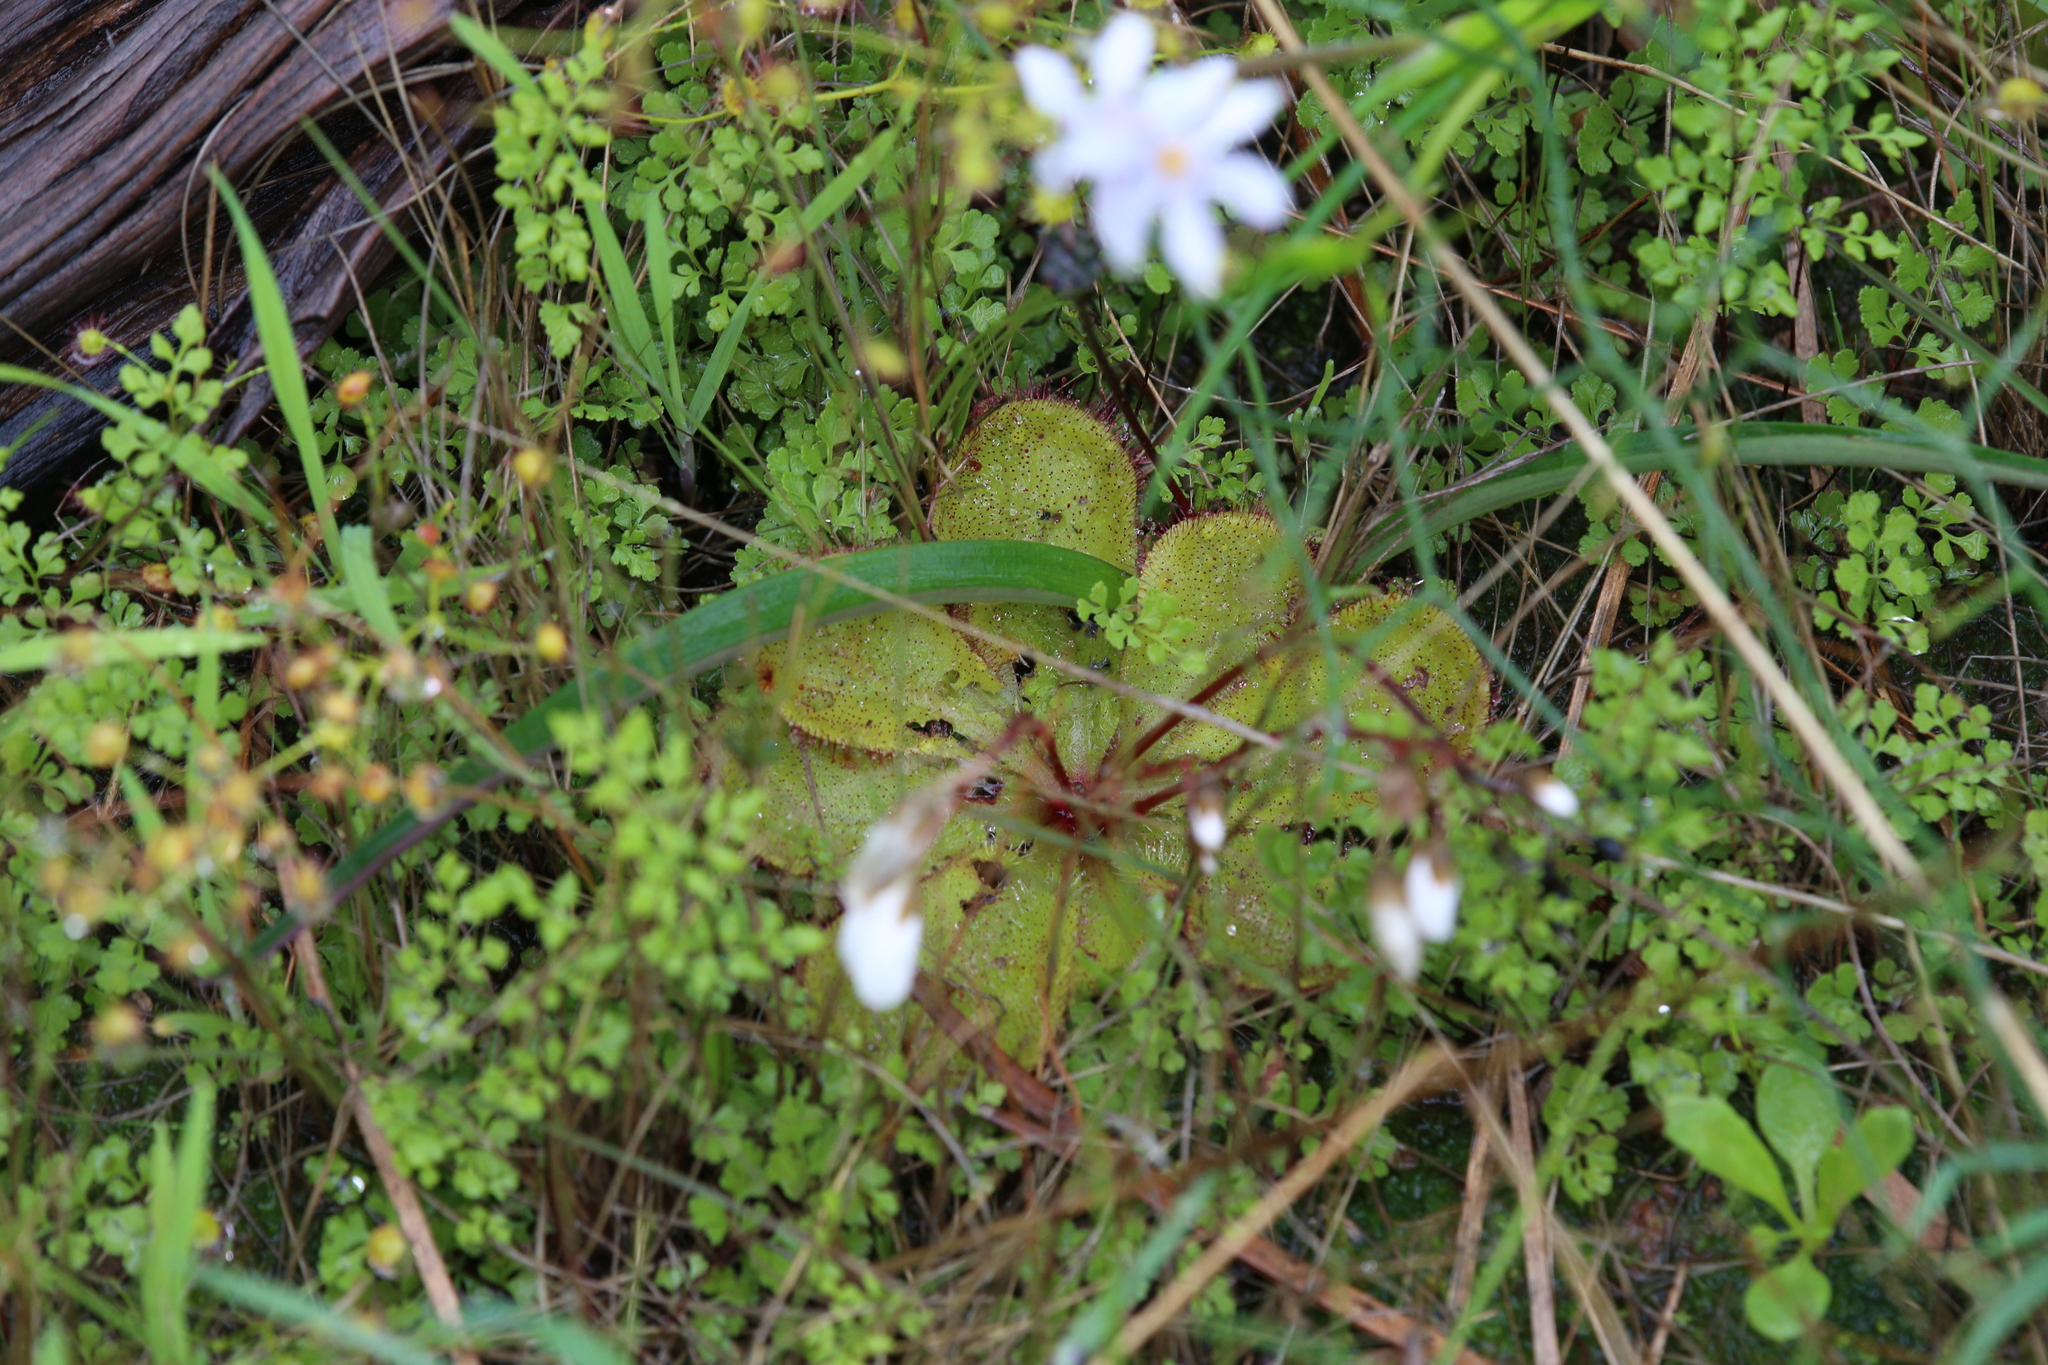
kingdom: Plantae
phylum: Tracheophyta
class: Magnoliopsida
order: Caryophyllales
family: Droseraceae
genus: Drosera
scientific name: Drosera macrophylla
